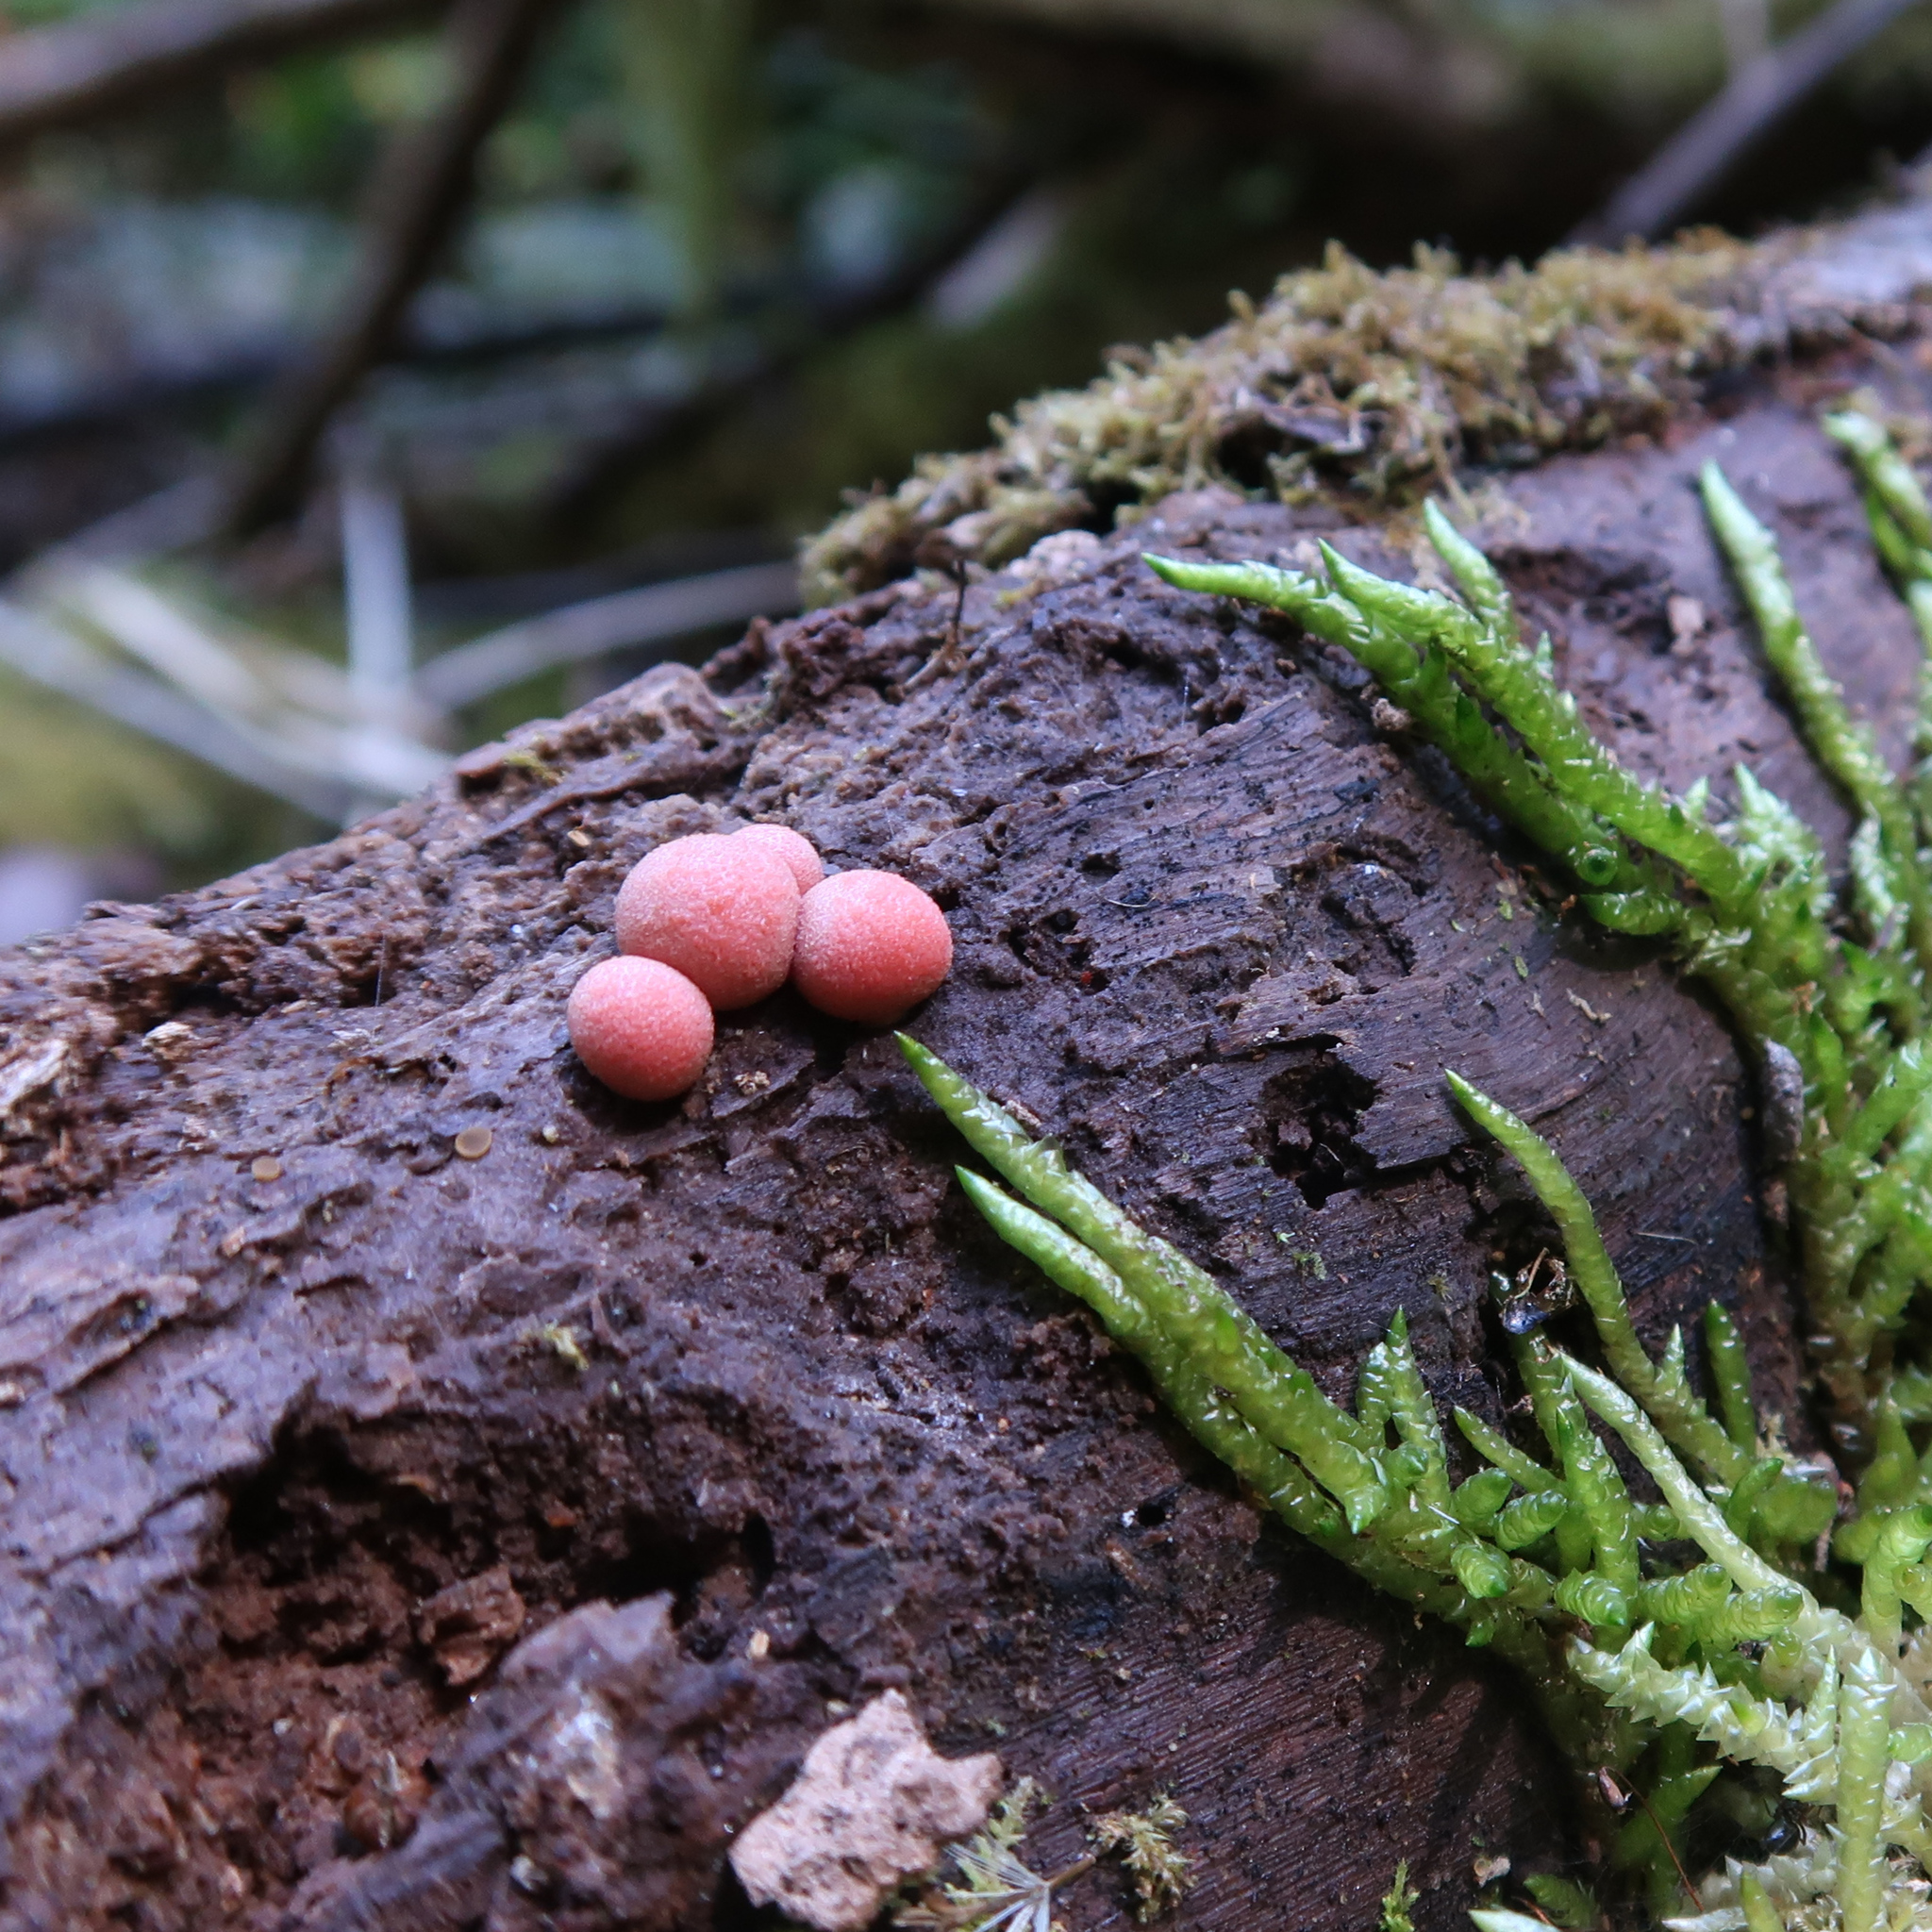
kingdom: Protozoa
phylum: Mycetozoa
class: Myxomycetes
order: Cribrariales
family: Tubiferaceae
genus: Lycogala
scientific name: Lycogala epidendrum
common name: Wolf's milk
